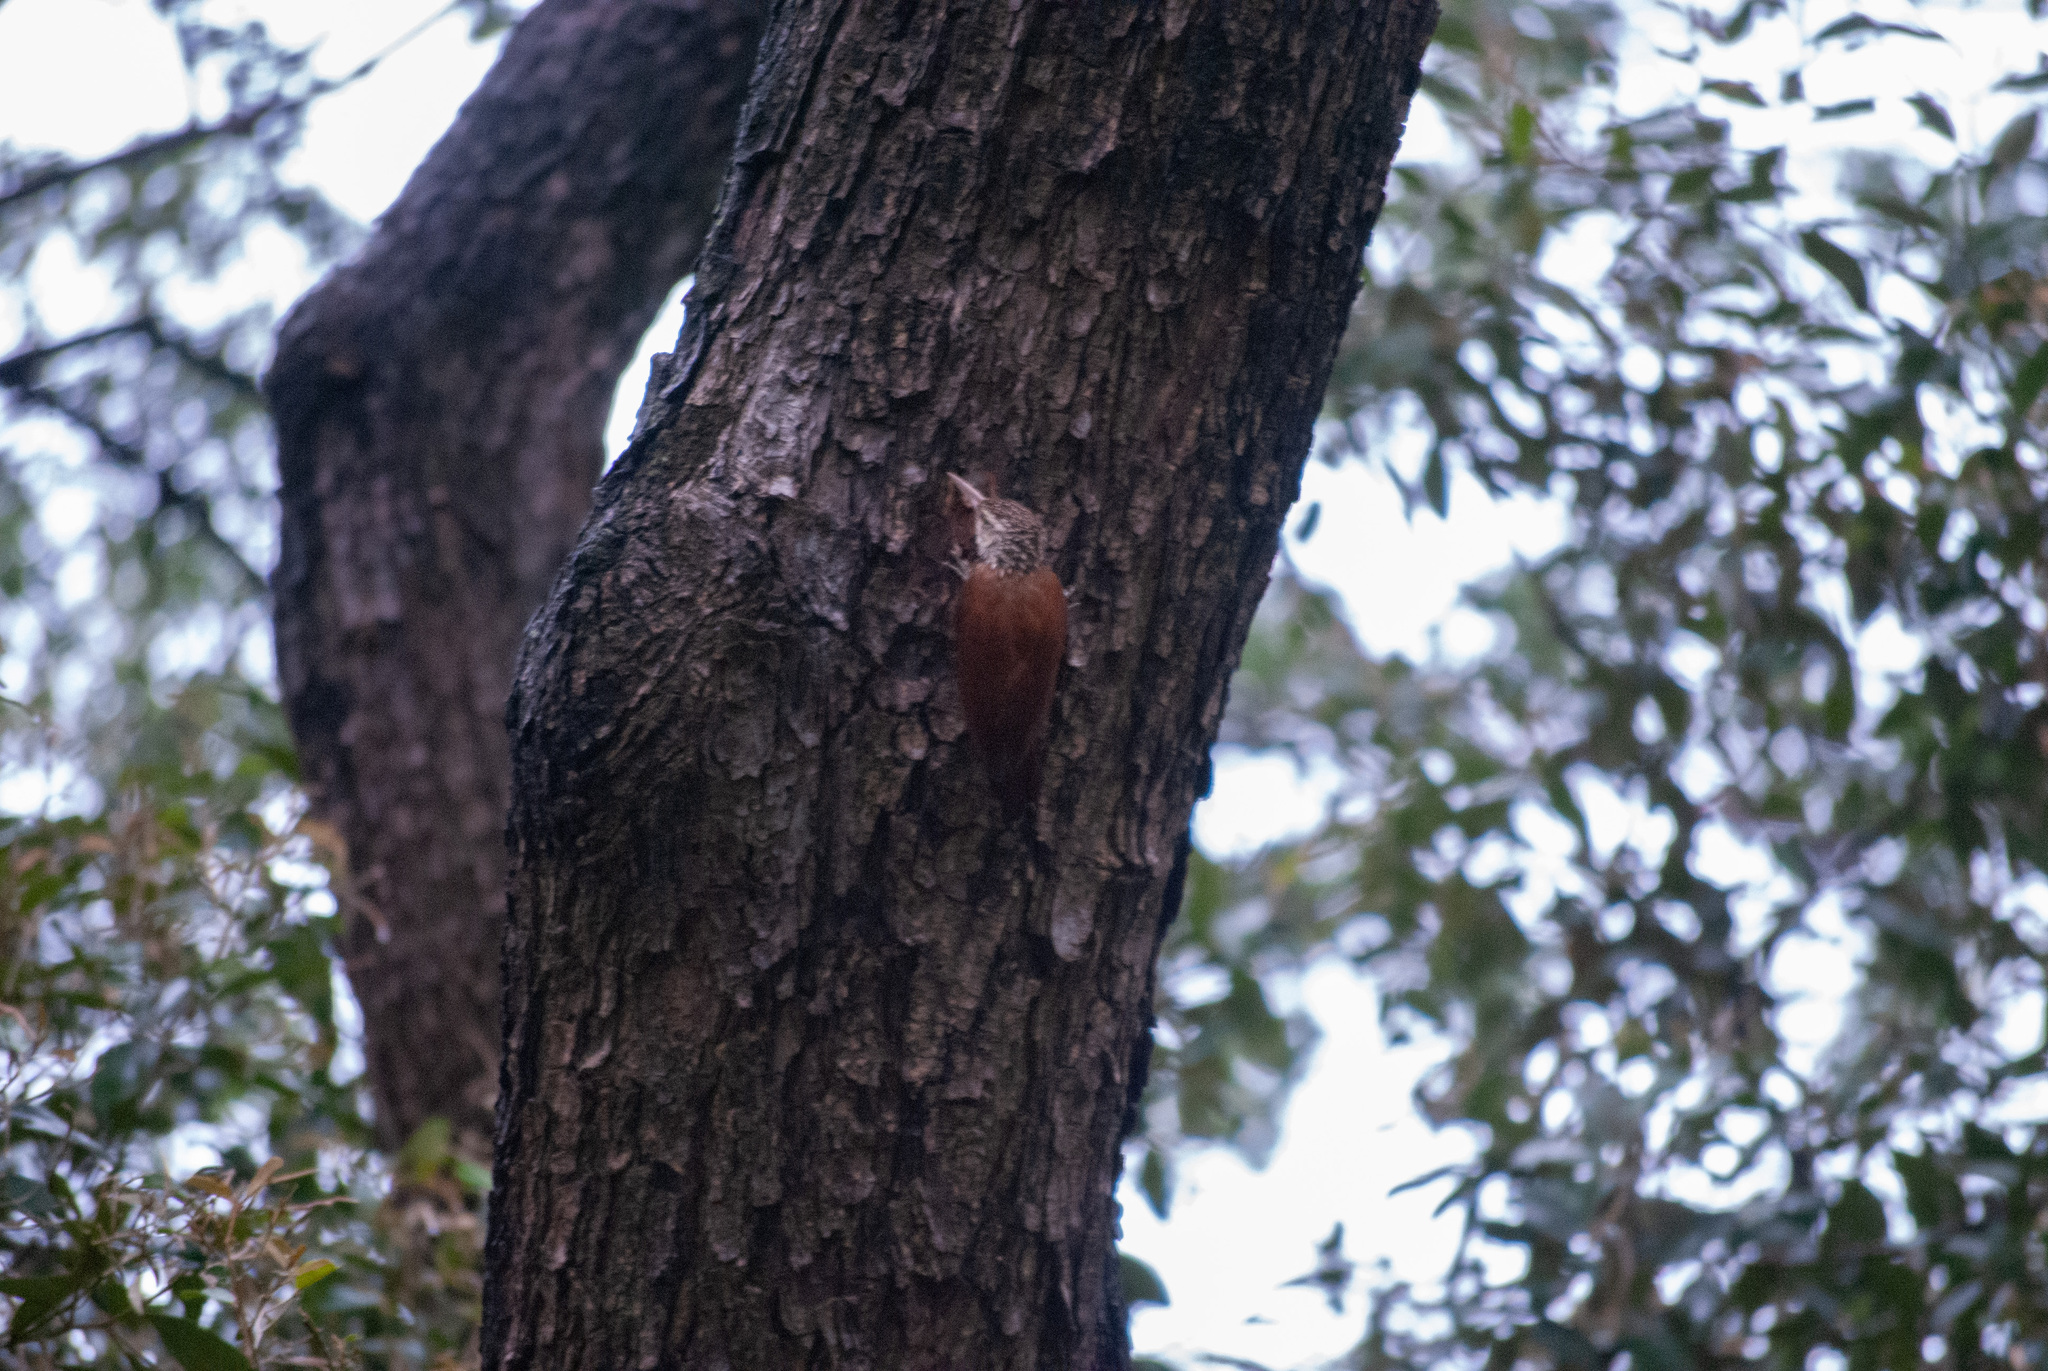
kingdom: Animalia
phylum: Chordata
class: Aves
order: Passeriformes
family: Furnariidae
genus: Xiphorhynchus
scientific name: Xiphorhynchus picus
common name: Straight-billed woodcreeper
